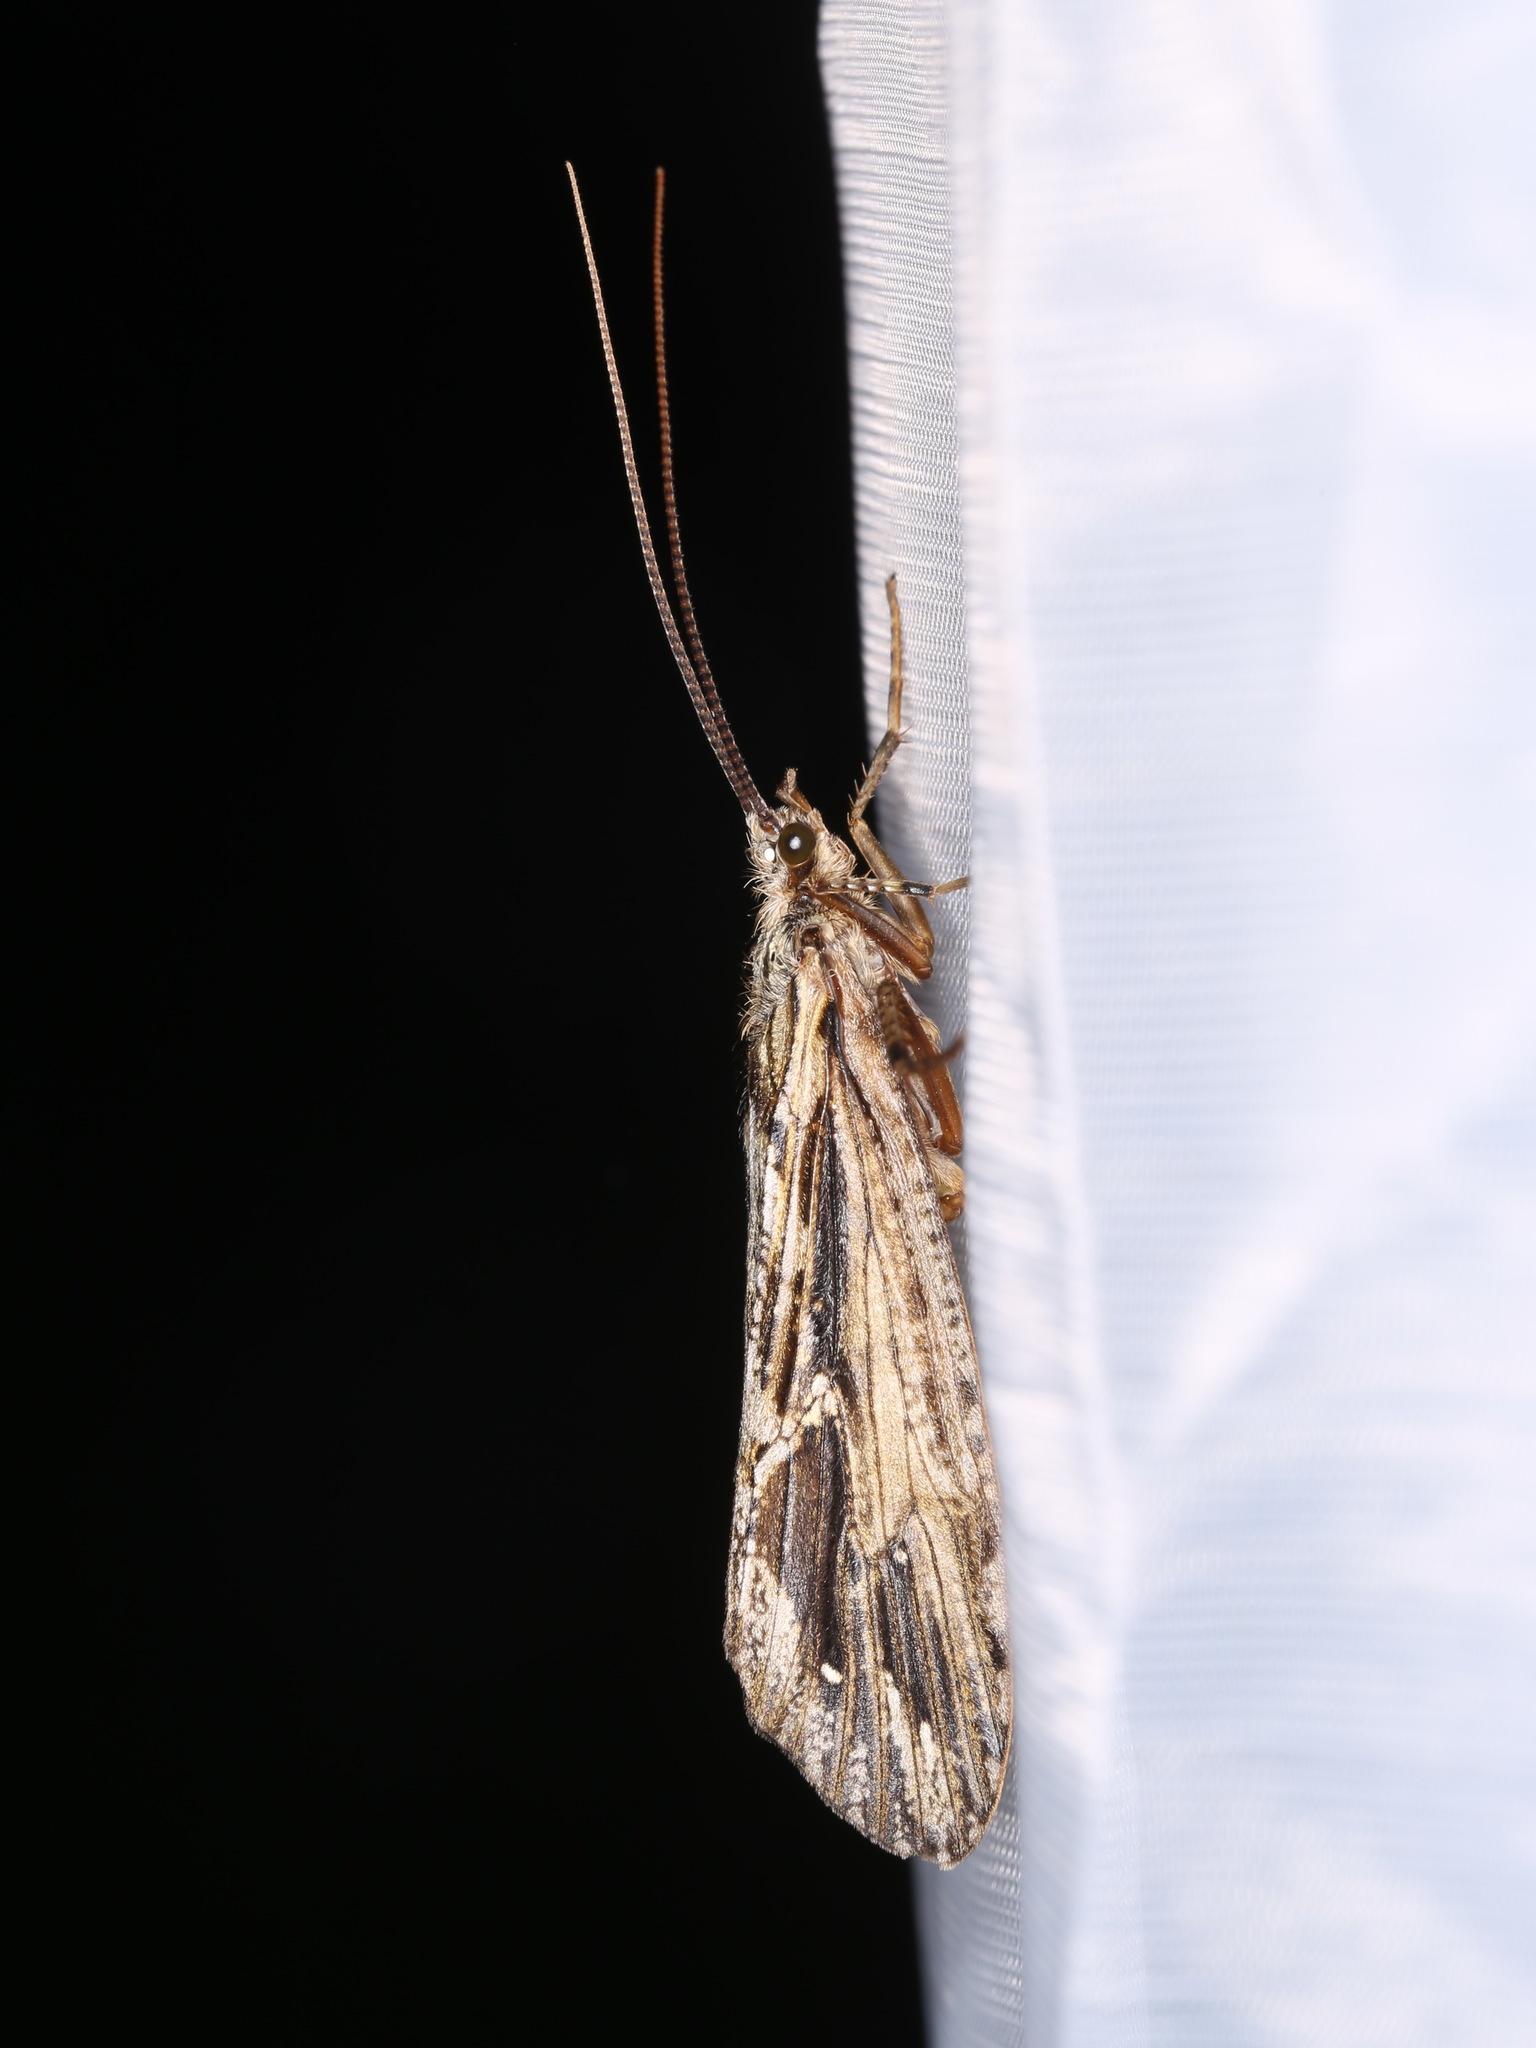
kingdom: Animalia
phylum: Arthropoda
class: Insecta
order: Trichoptera
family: Phryganeidae
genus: Phryganea
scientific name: Phryganea grandis
